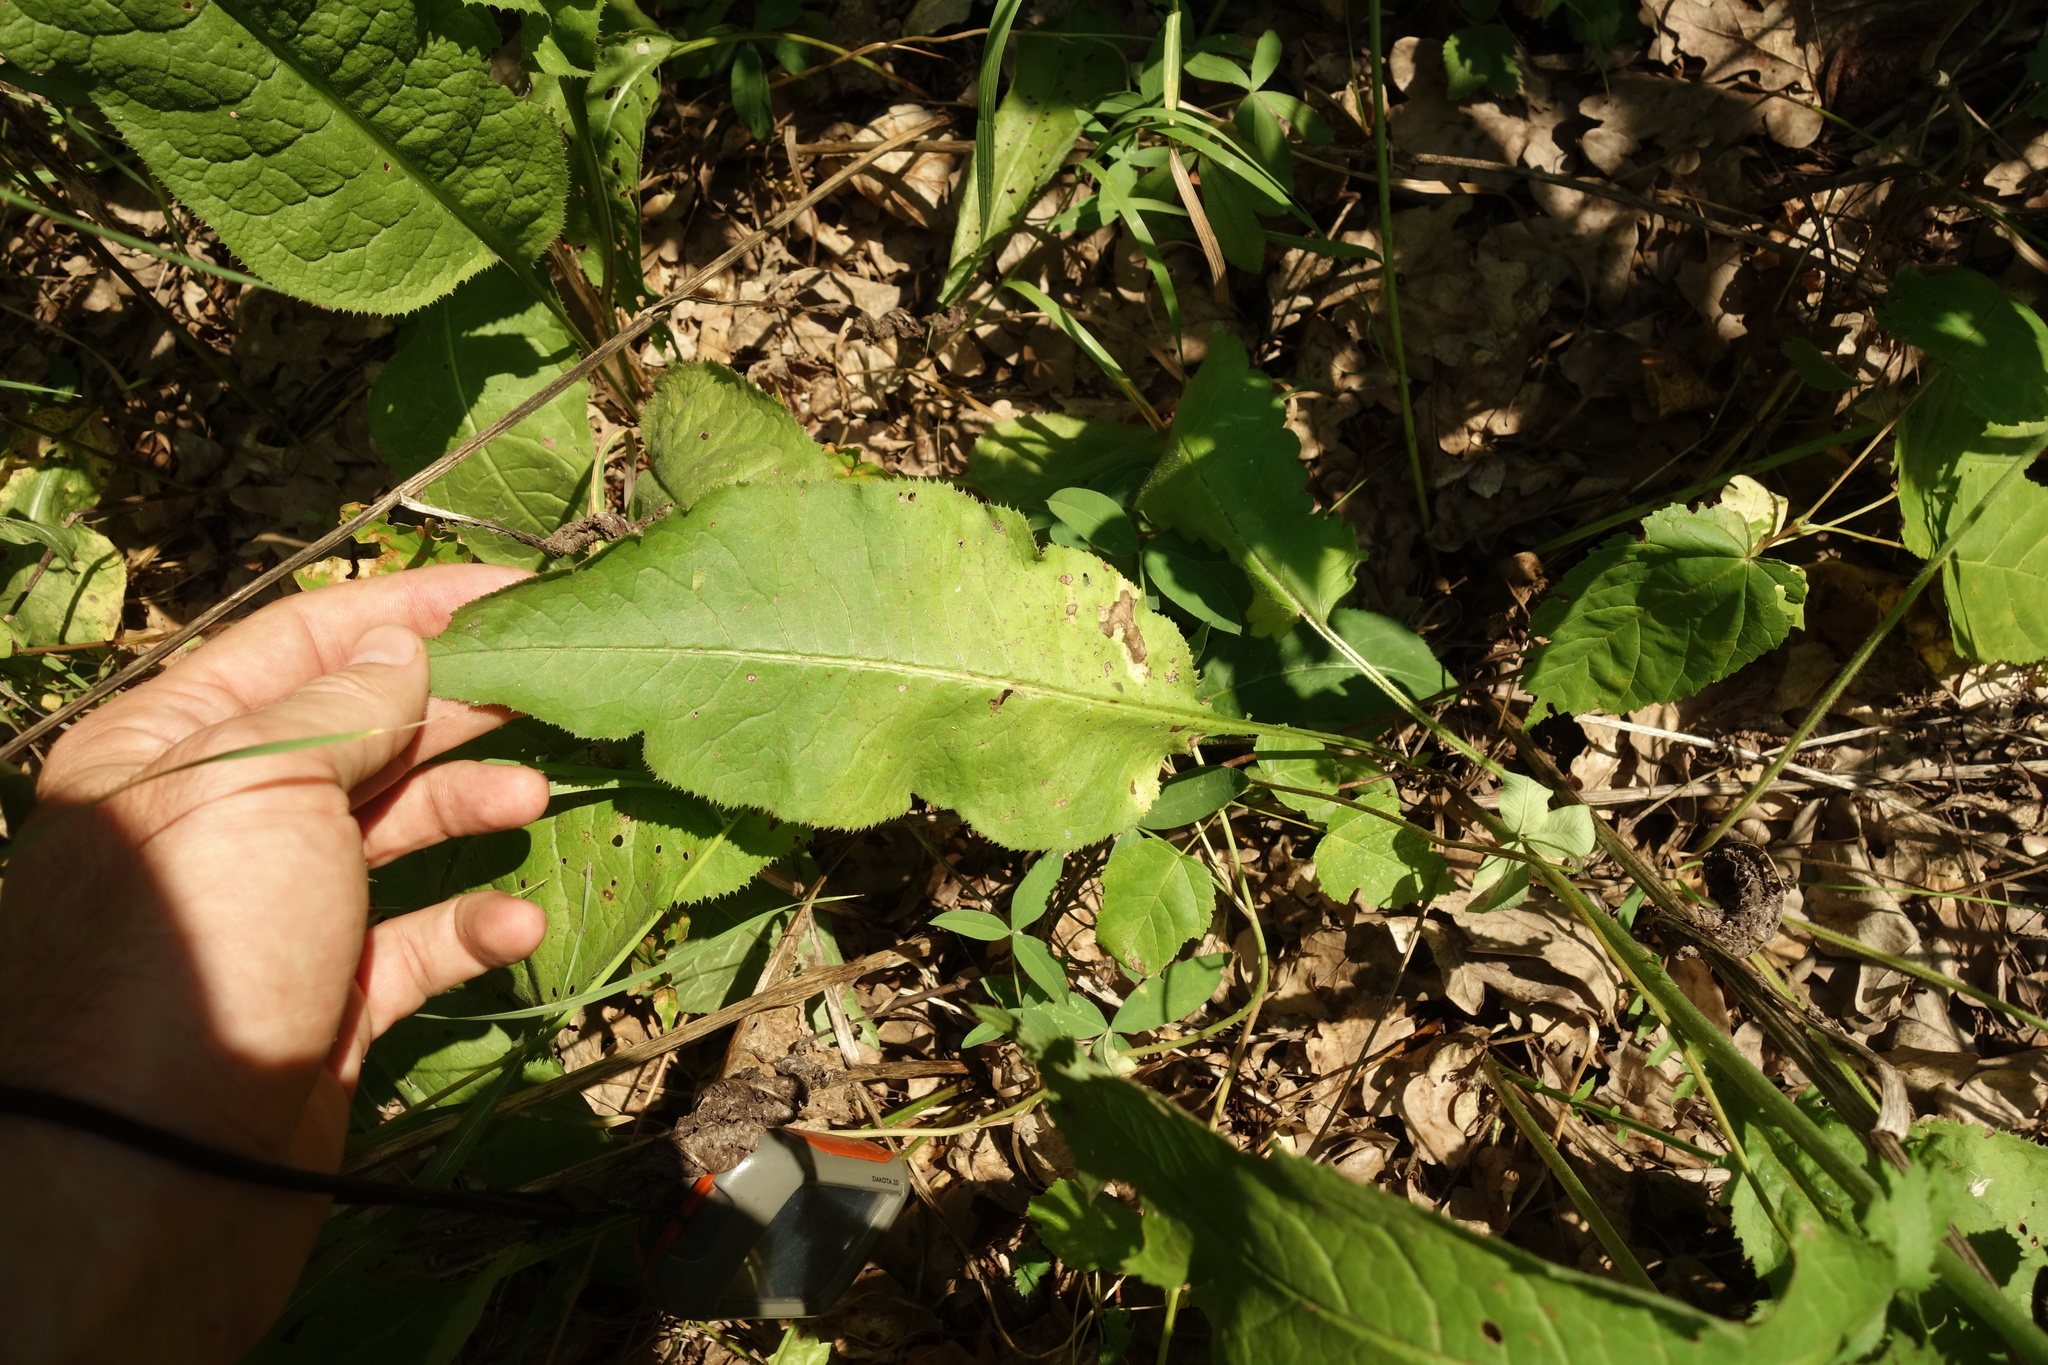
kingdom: Plantae
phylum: Tracheophyta
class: Magnoliopsida
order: Asterales
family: Asteraceae
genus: Serratula
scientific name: Serratula tinctoria
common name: Saw-wort
